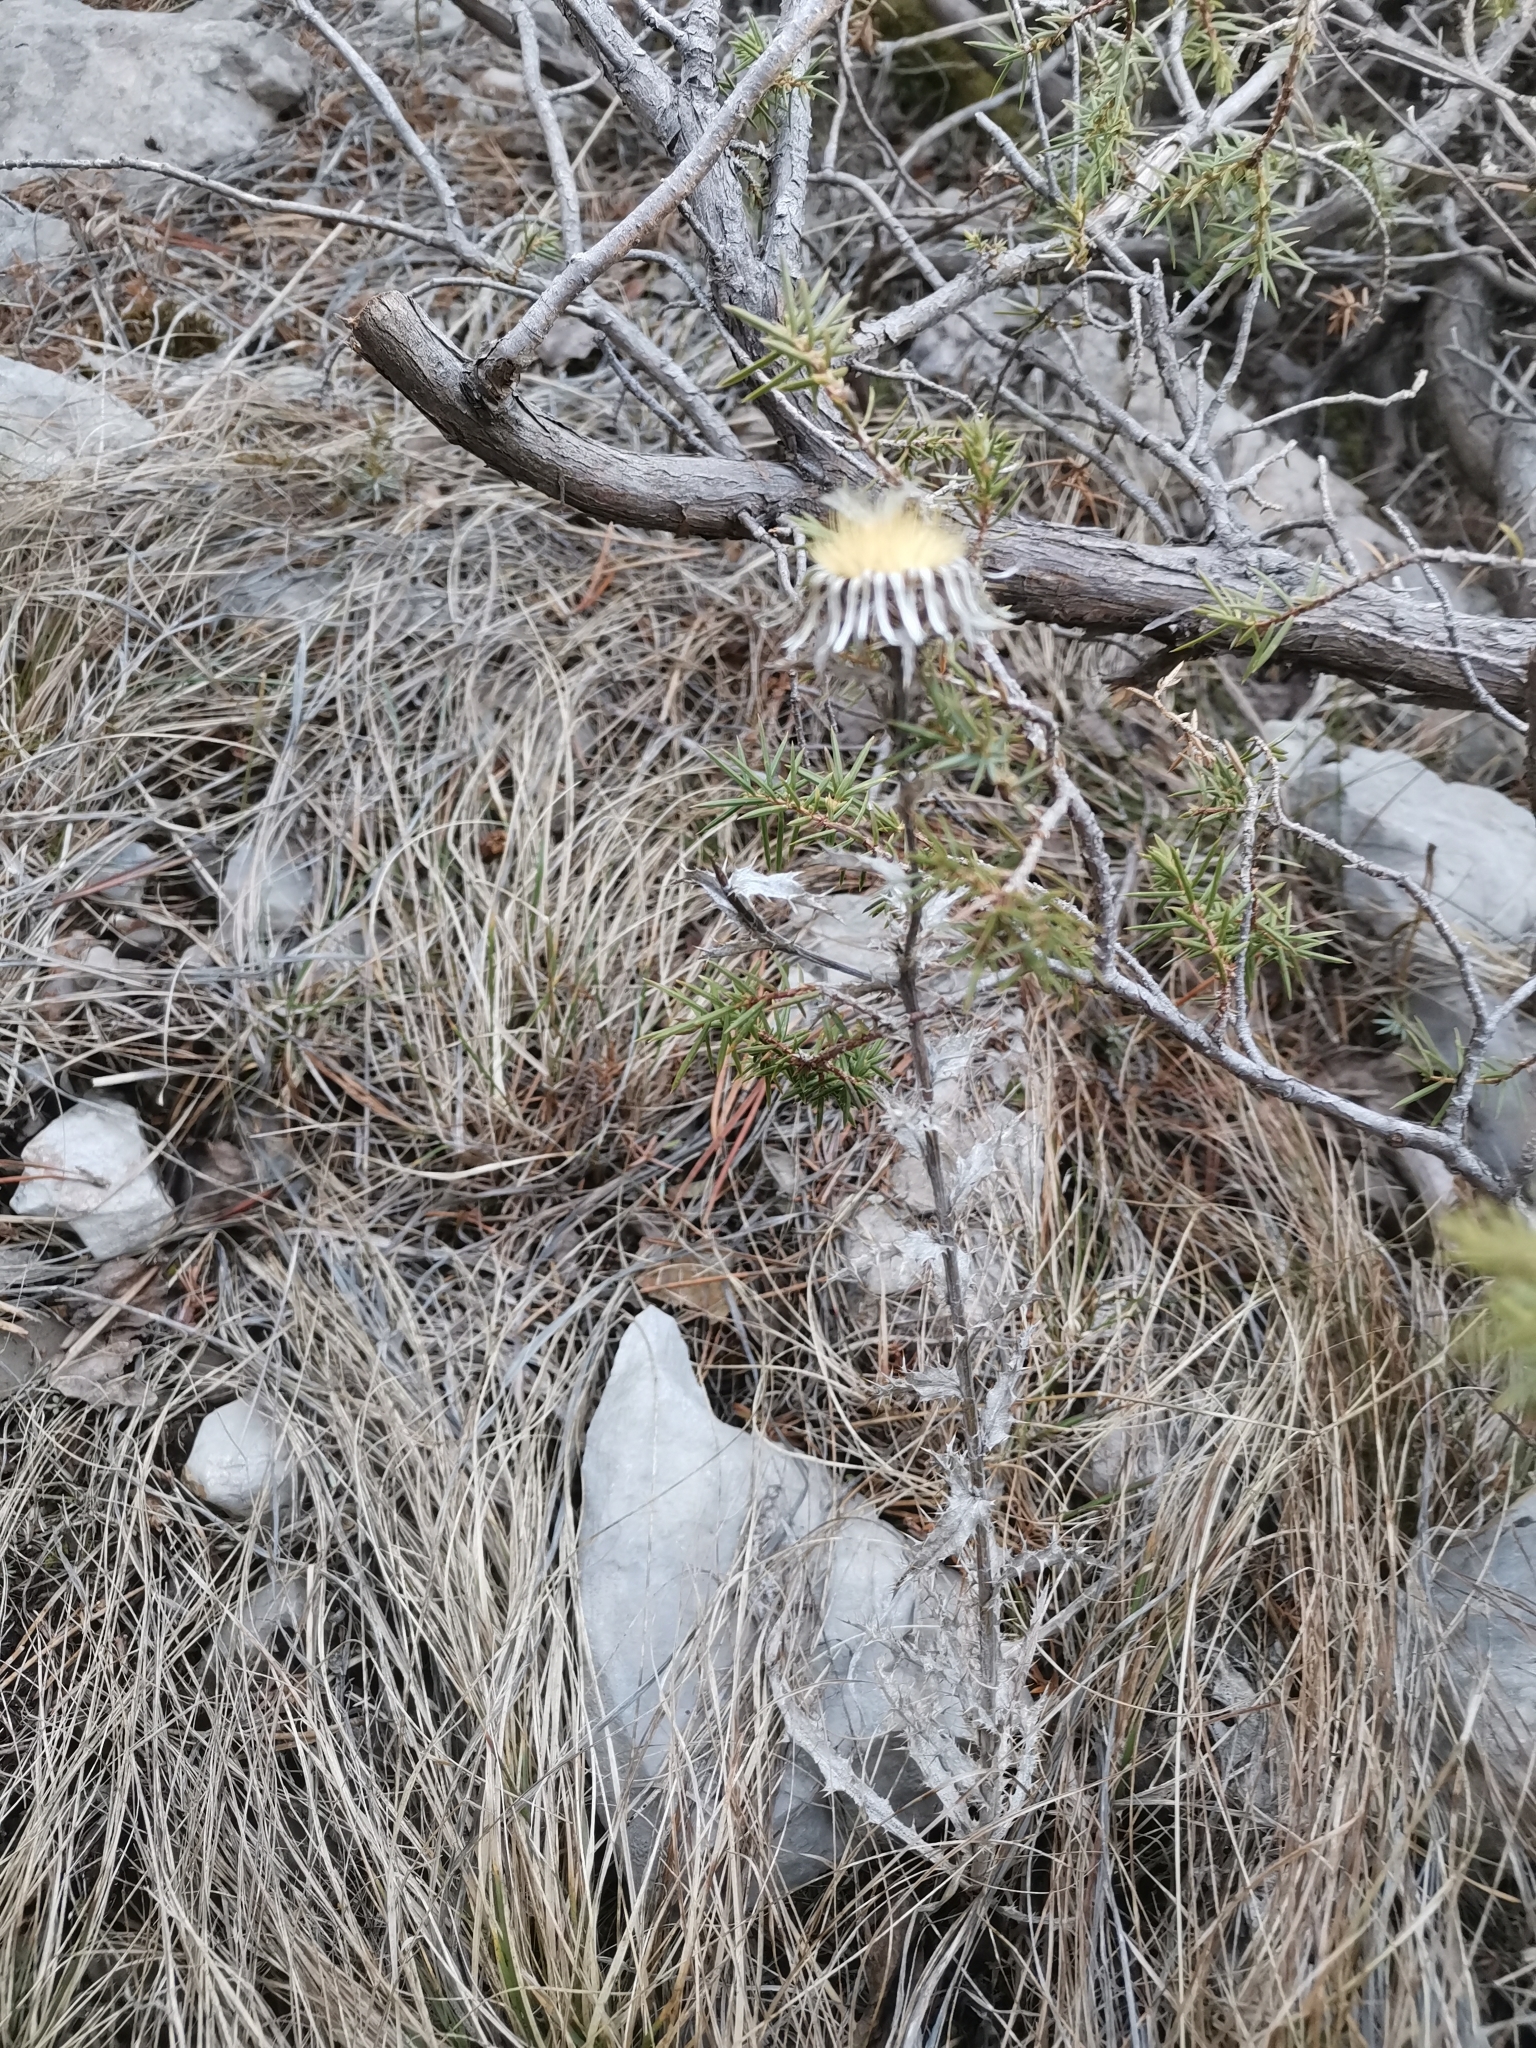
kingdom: Plantae
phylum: Tracheophyta
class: Magnoliopsida
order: Asterales
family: Asteraceae
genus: Carlina
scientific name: Carlina vulgaris
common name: Carline thistle
